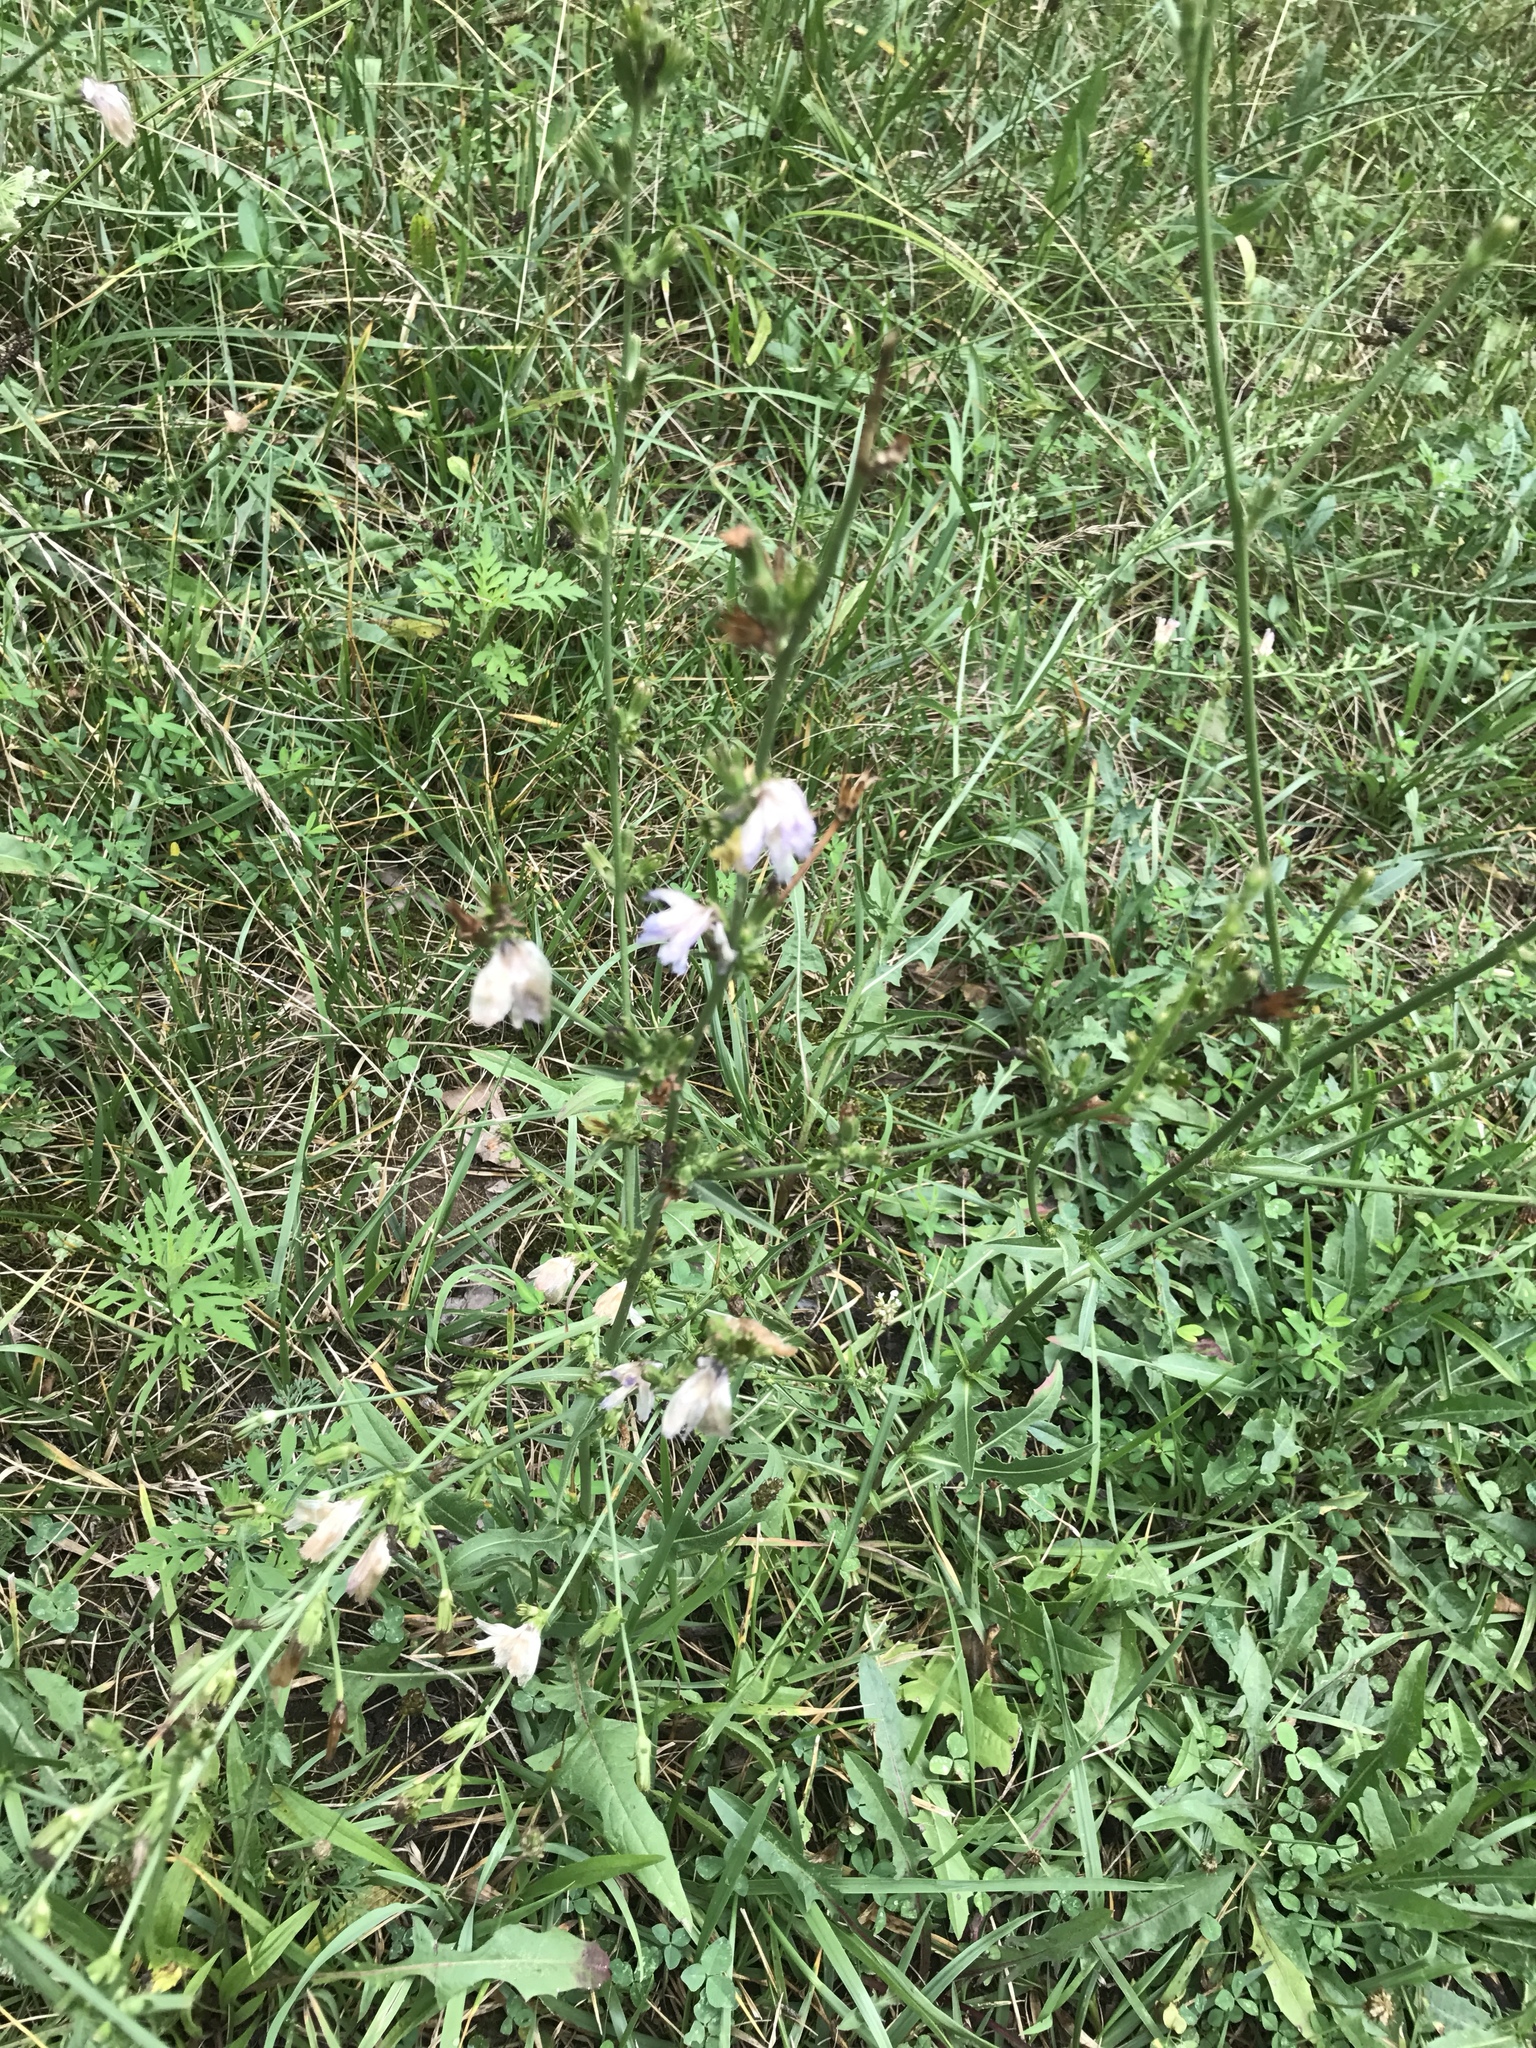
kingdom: Plantae
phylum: Tracheophyta
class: Magnoliopsida
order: Asterales
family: Asteraceae
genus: Cichorium
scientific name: Cichorium intybus
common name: Chicory
